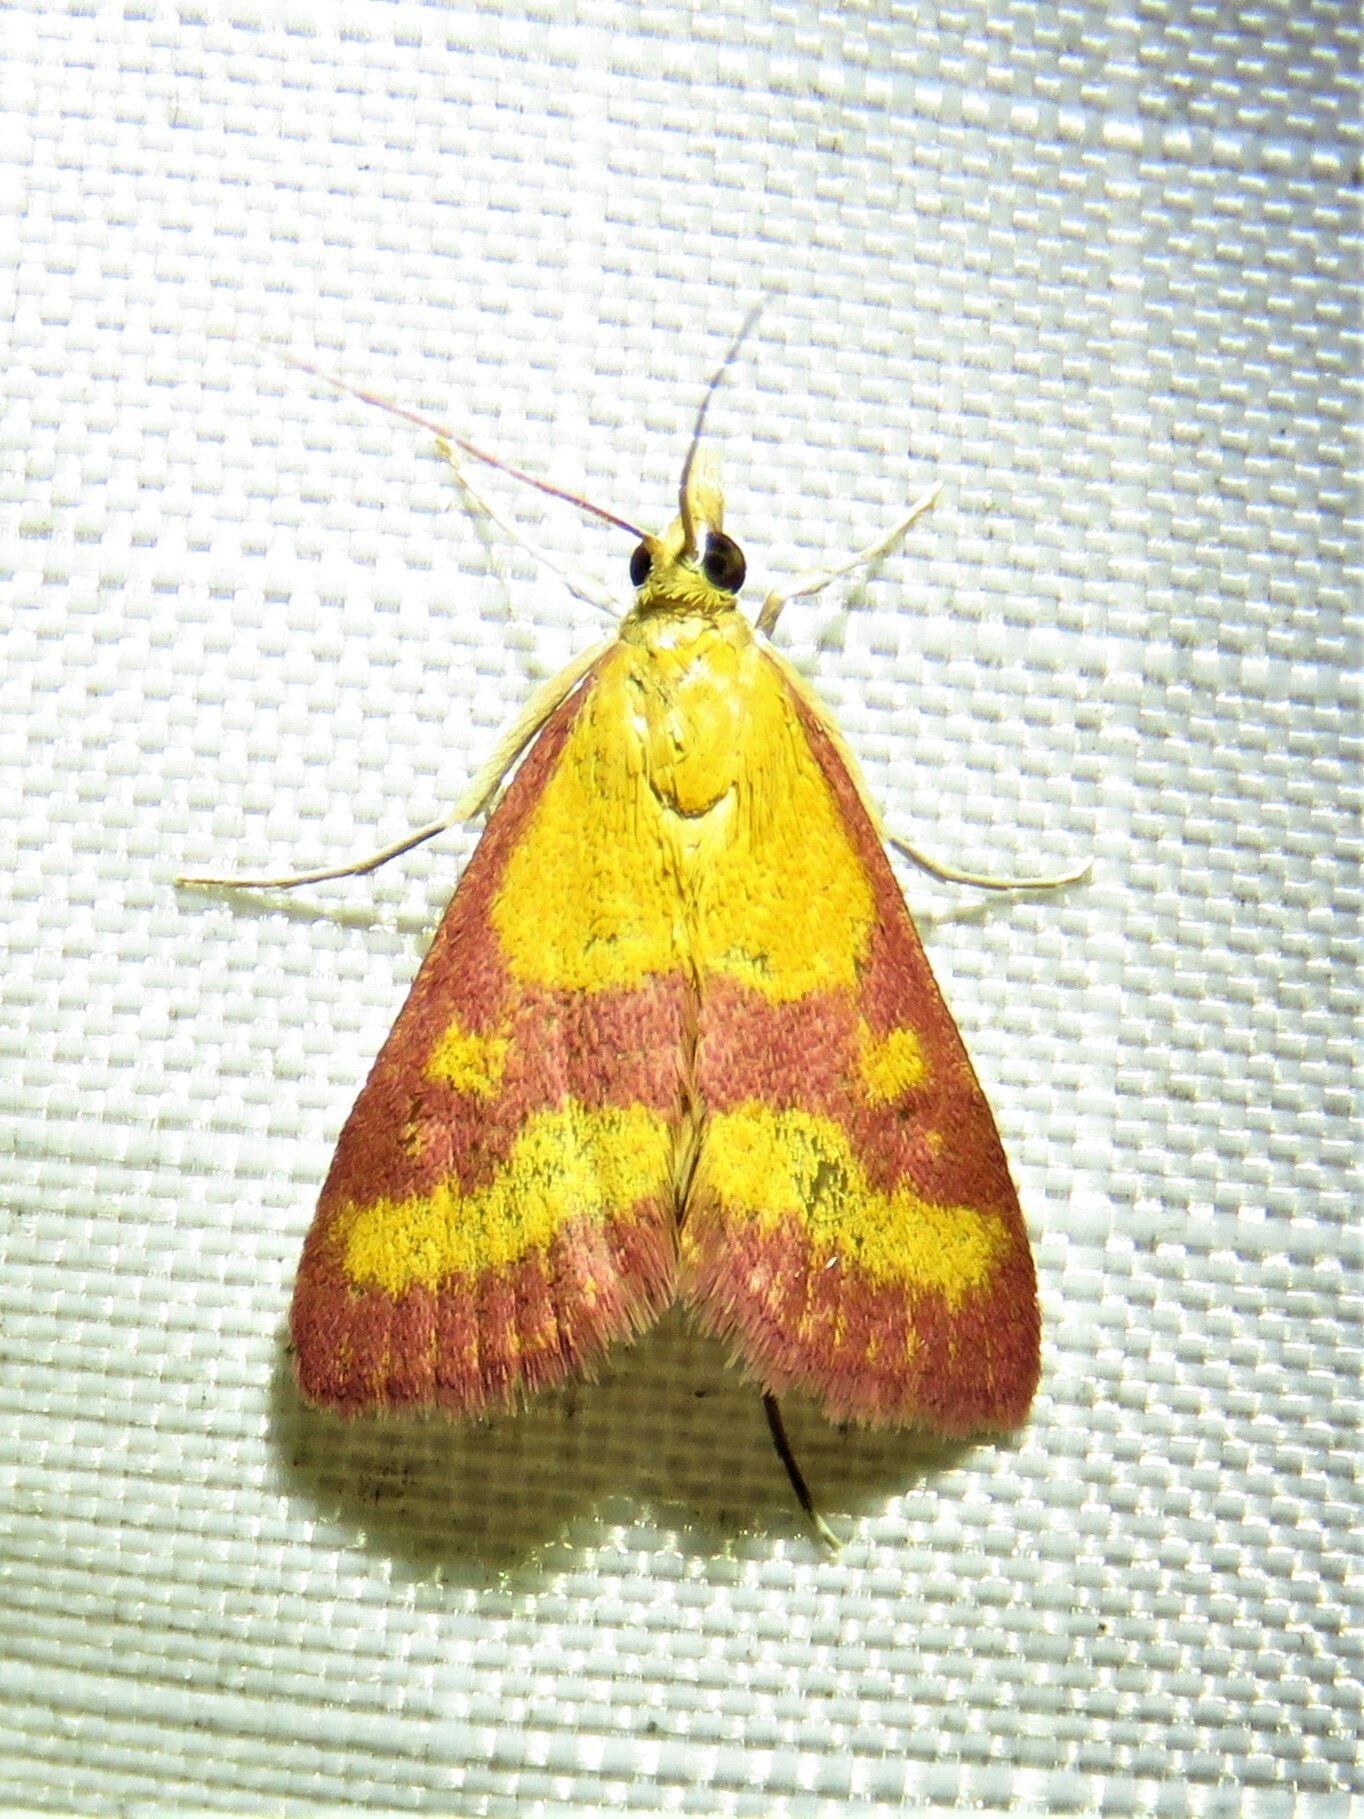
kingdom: Animalia
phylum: Arthropoda
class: Insecta
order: Lepidoptera
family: Crambidae
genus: Pyrausta
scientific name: Pyrausta laticlavia
